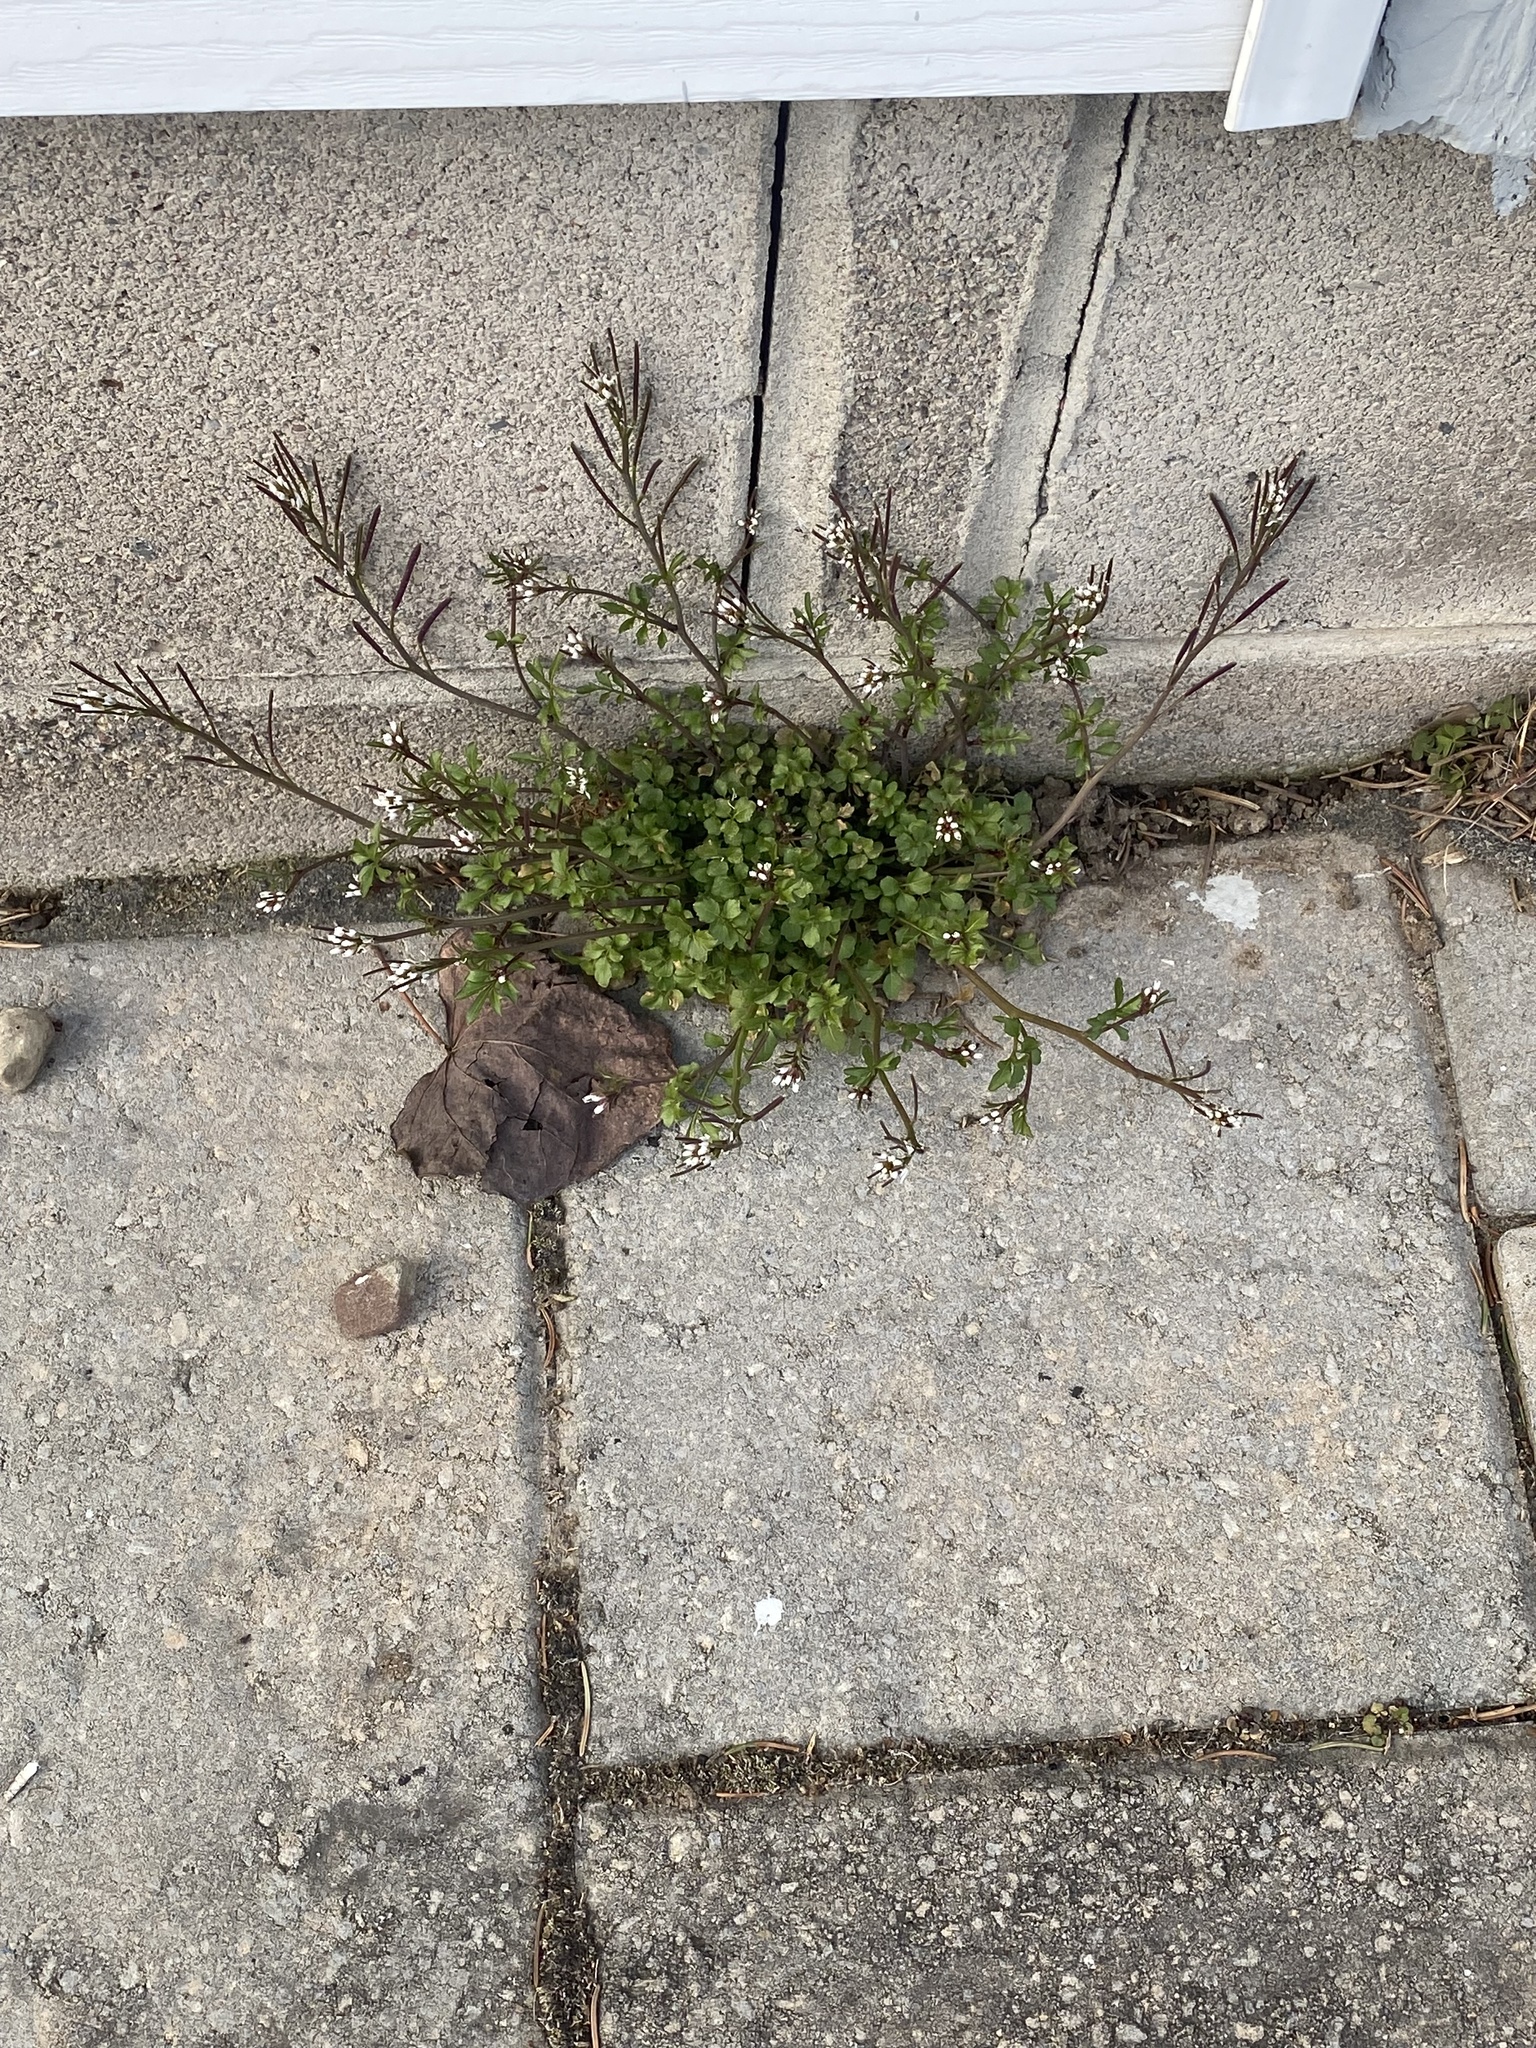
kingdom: Plantae
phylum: Tracheophyta
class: Magnoliopsida
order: Brassicales
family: Brassicaceae
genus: Cardamine
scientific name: Cardamine hirsuta
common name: Hairy bittercress
